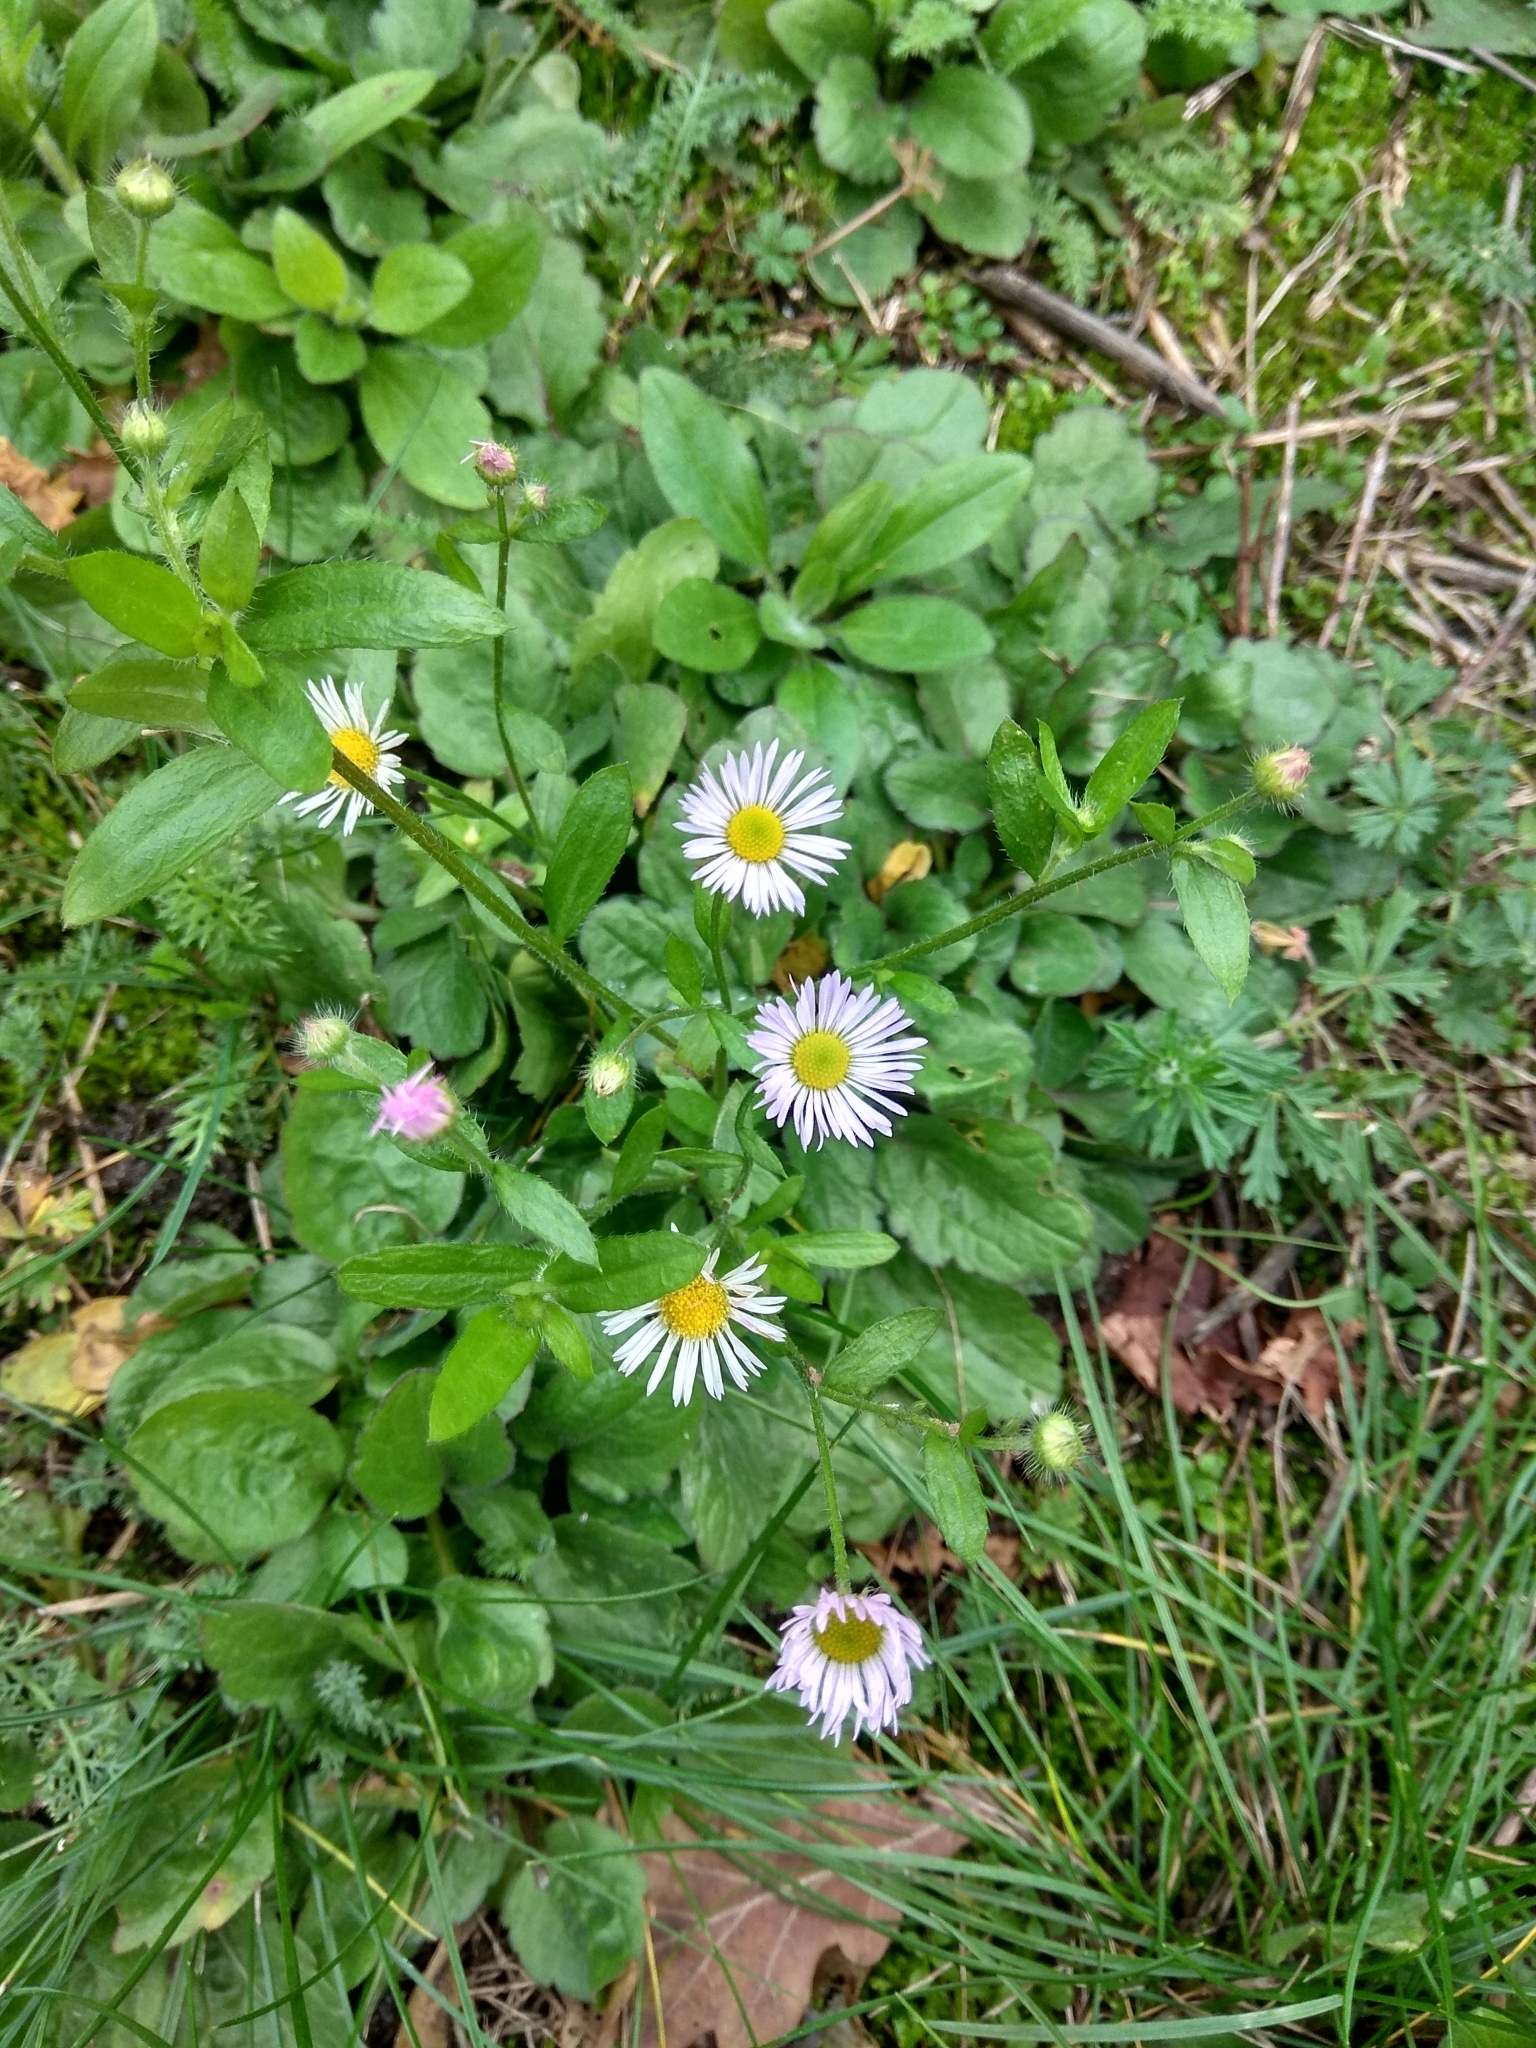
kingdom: Plantae
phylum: Tracheophyta
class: Magnoliopsida
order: Asterales
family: Asteraceae
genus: Erigeron
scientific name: Erigeron annuus
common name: Tall fleabane
